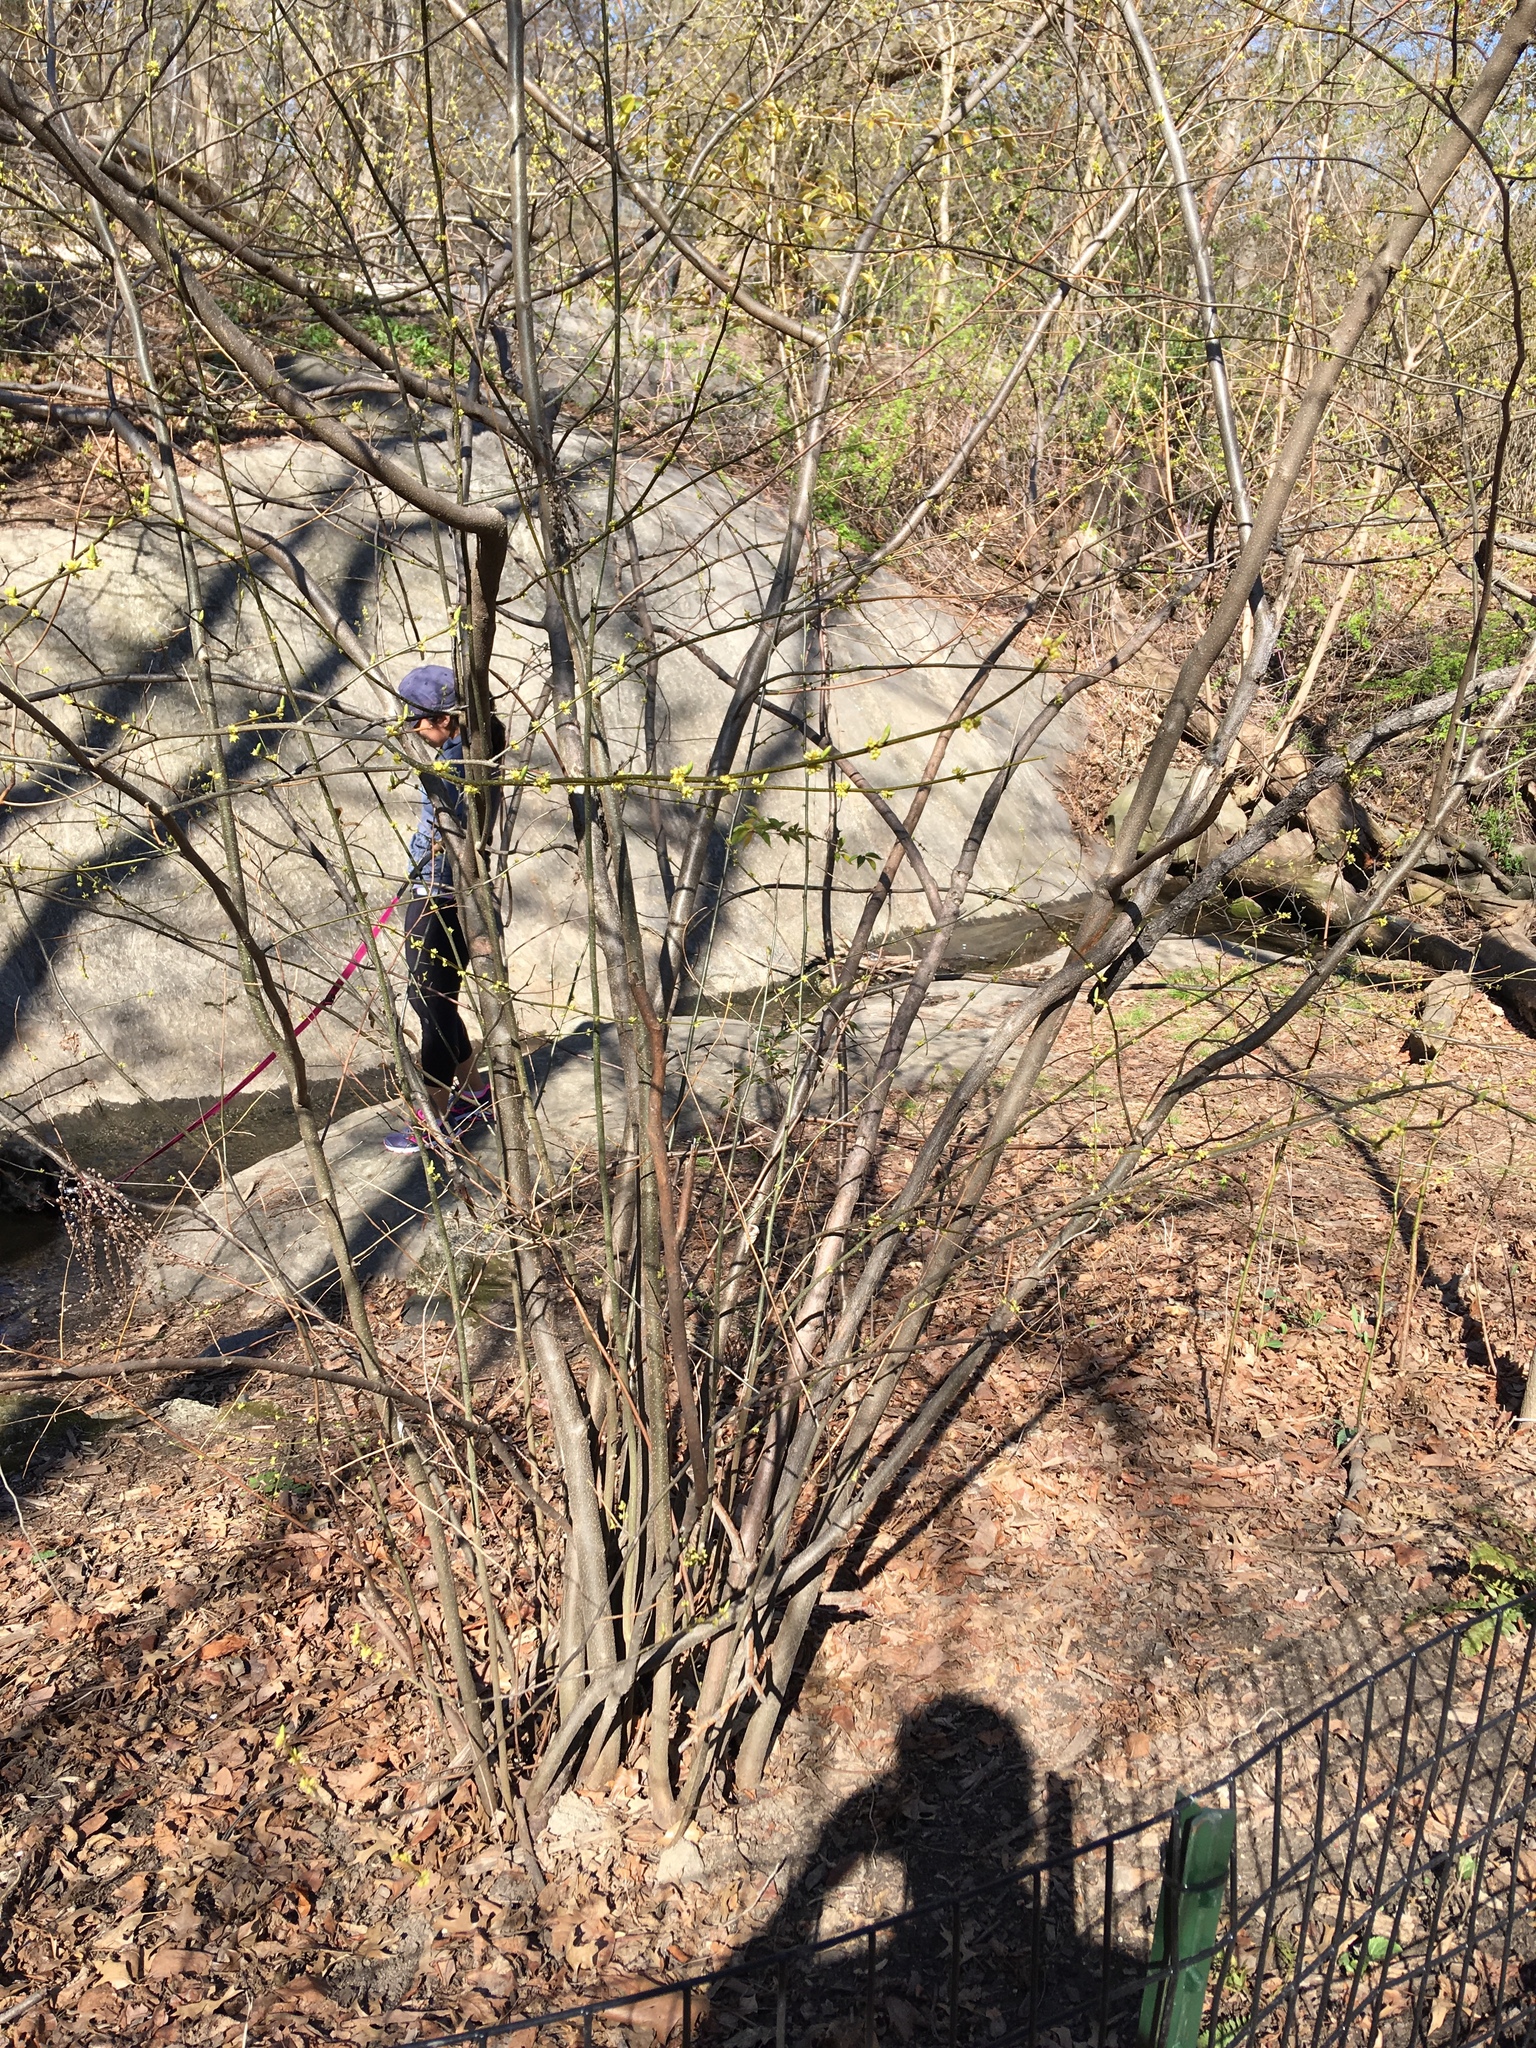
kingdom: Plantae
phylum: Tracheophyta
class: Magnoliopsida
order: Laurales
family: Lauraceae
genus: Lindera
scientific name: Lindera benzoin
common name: Spicebush
